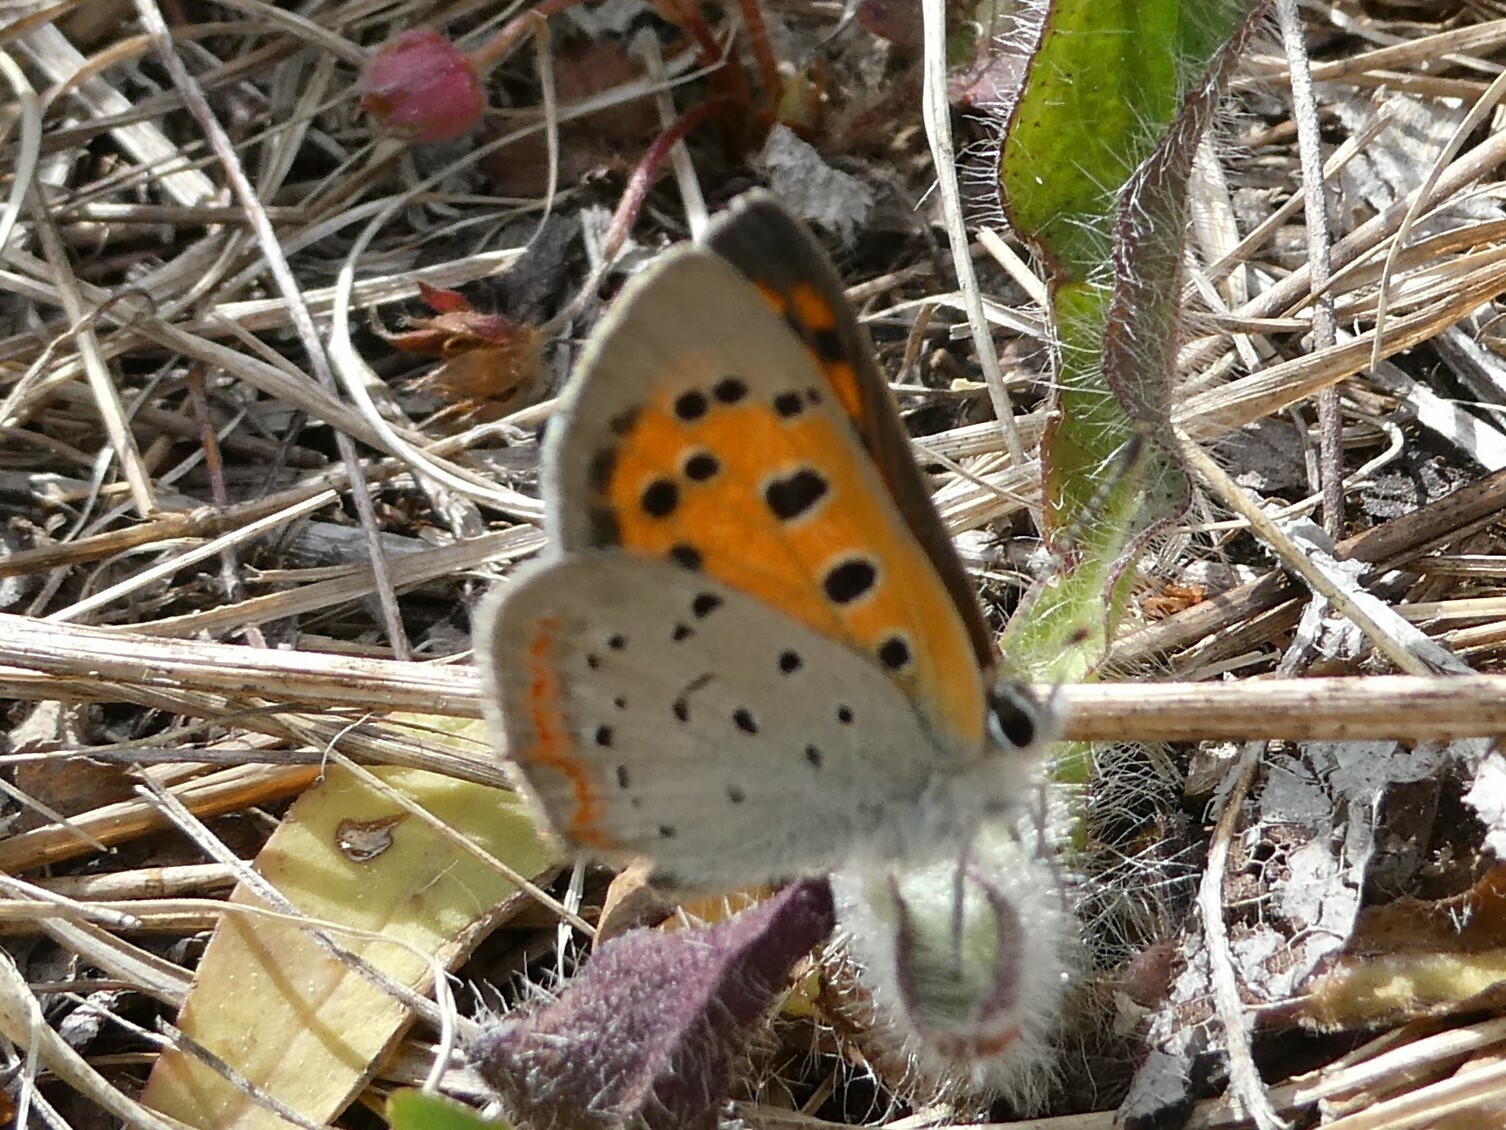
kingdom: Animalia
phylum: Arthropoda
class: Insecta
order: Lepidoptera
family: Lycaenidae
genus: Lycaena
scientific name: Lycaena hypophlaeas
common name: American copper
